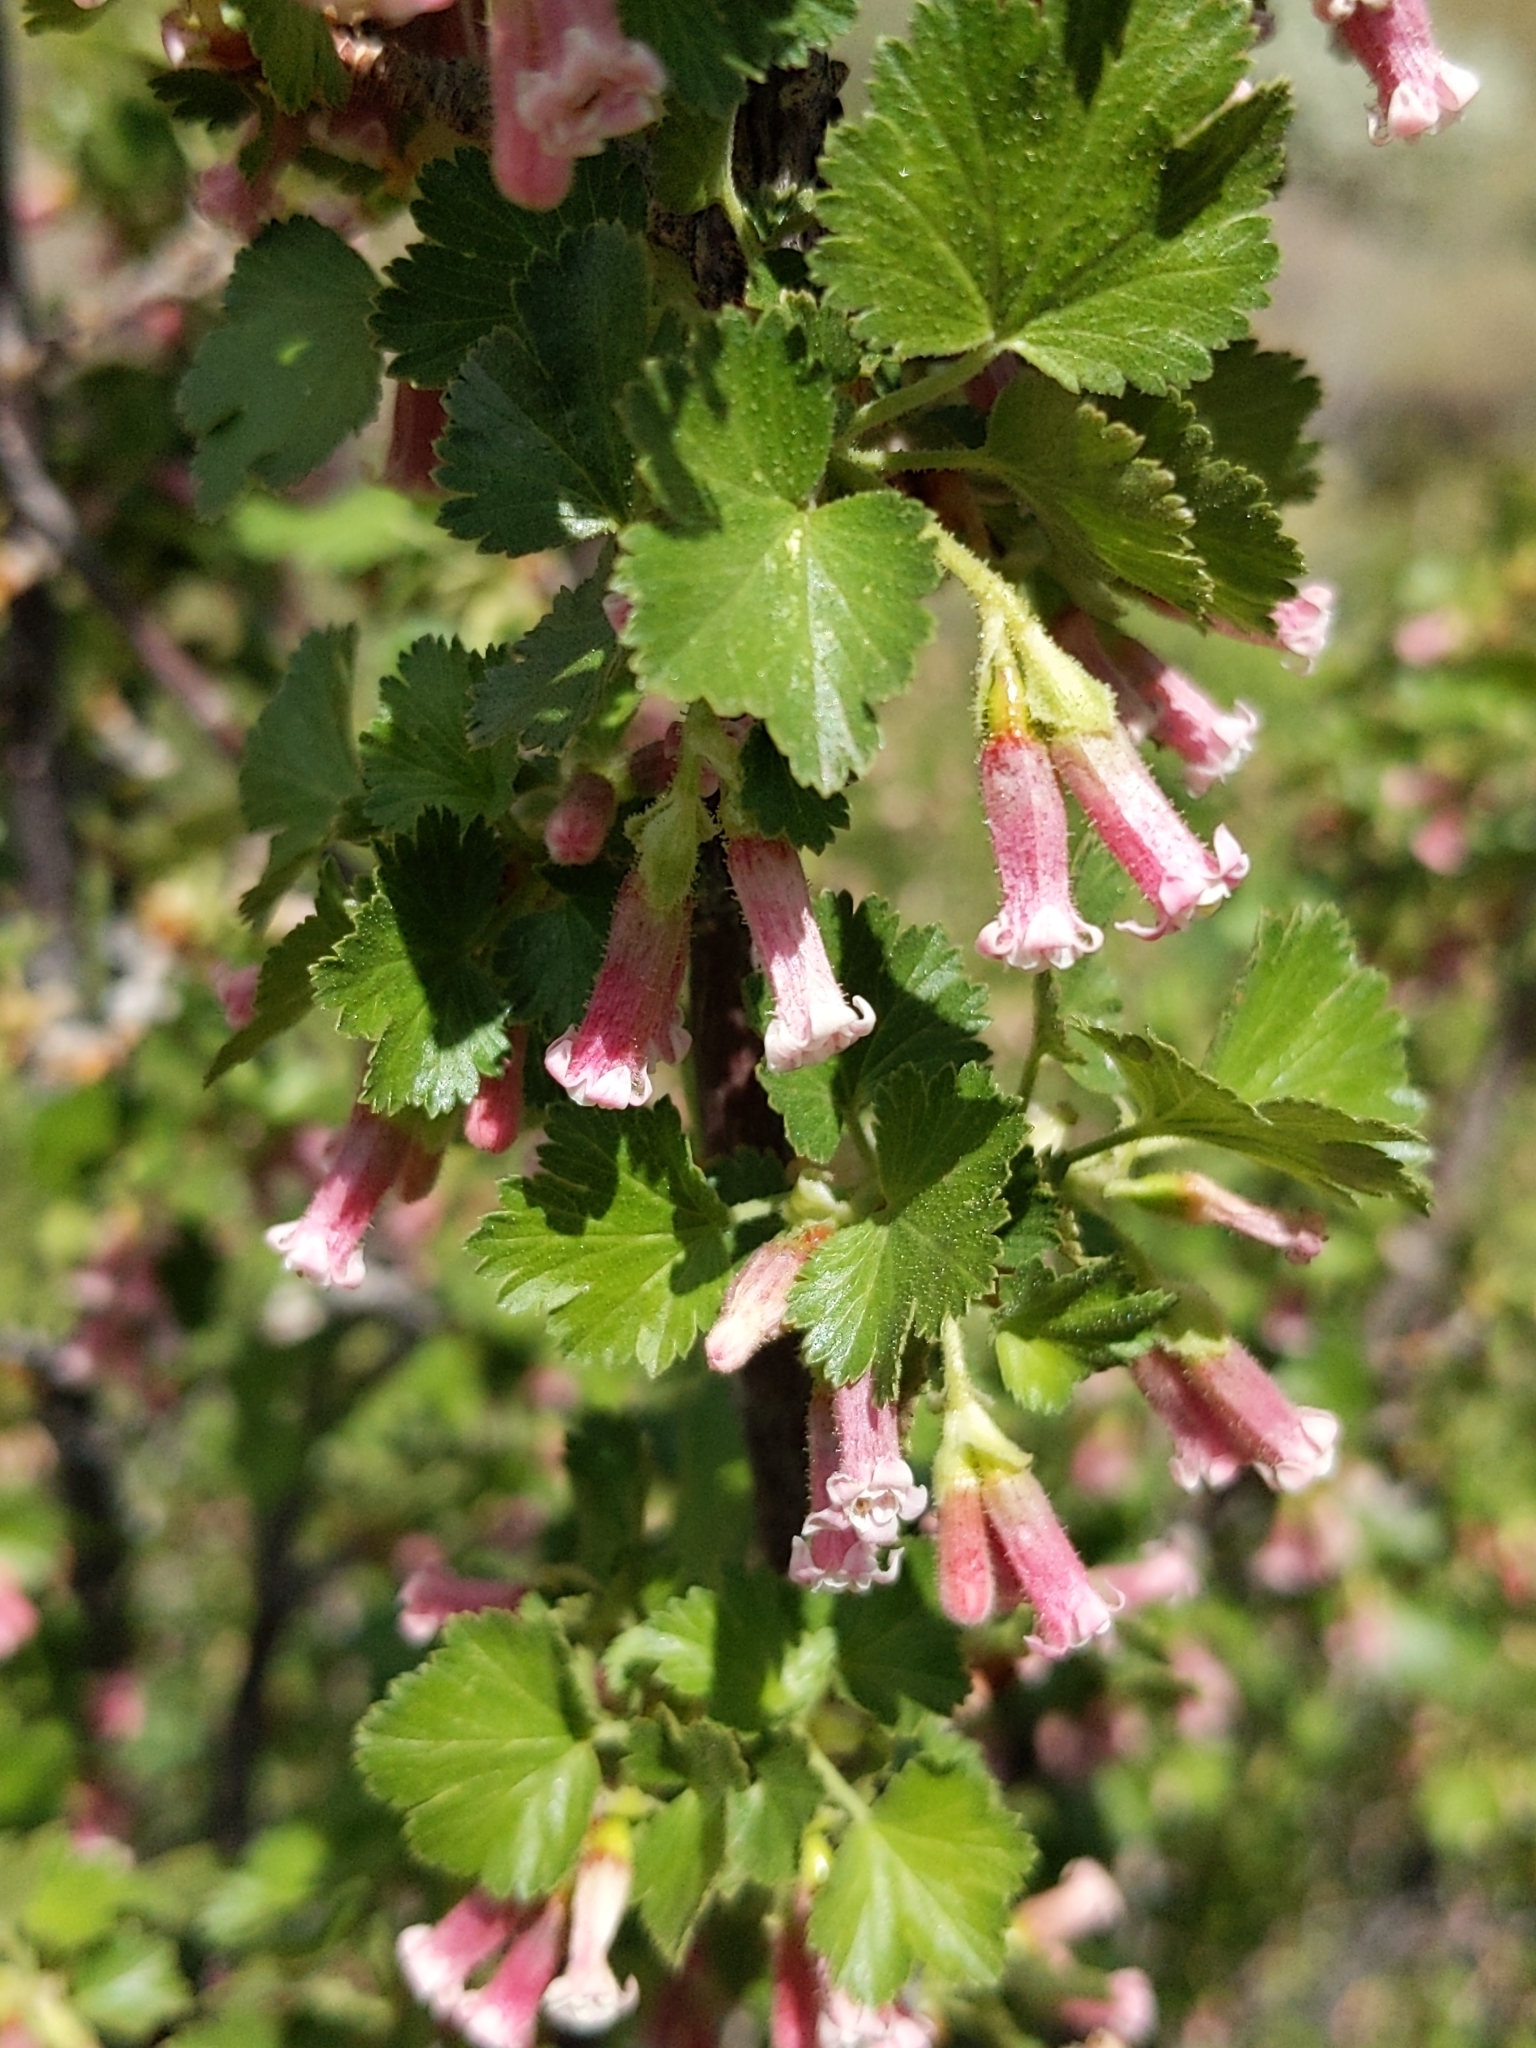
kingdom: Plantae
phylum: Tracheophyta
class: Magnoliopsida
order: Saxifragales
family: Grossulariaceae
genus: Ribes
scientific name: Ribes cereum
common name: Wax currant
